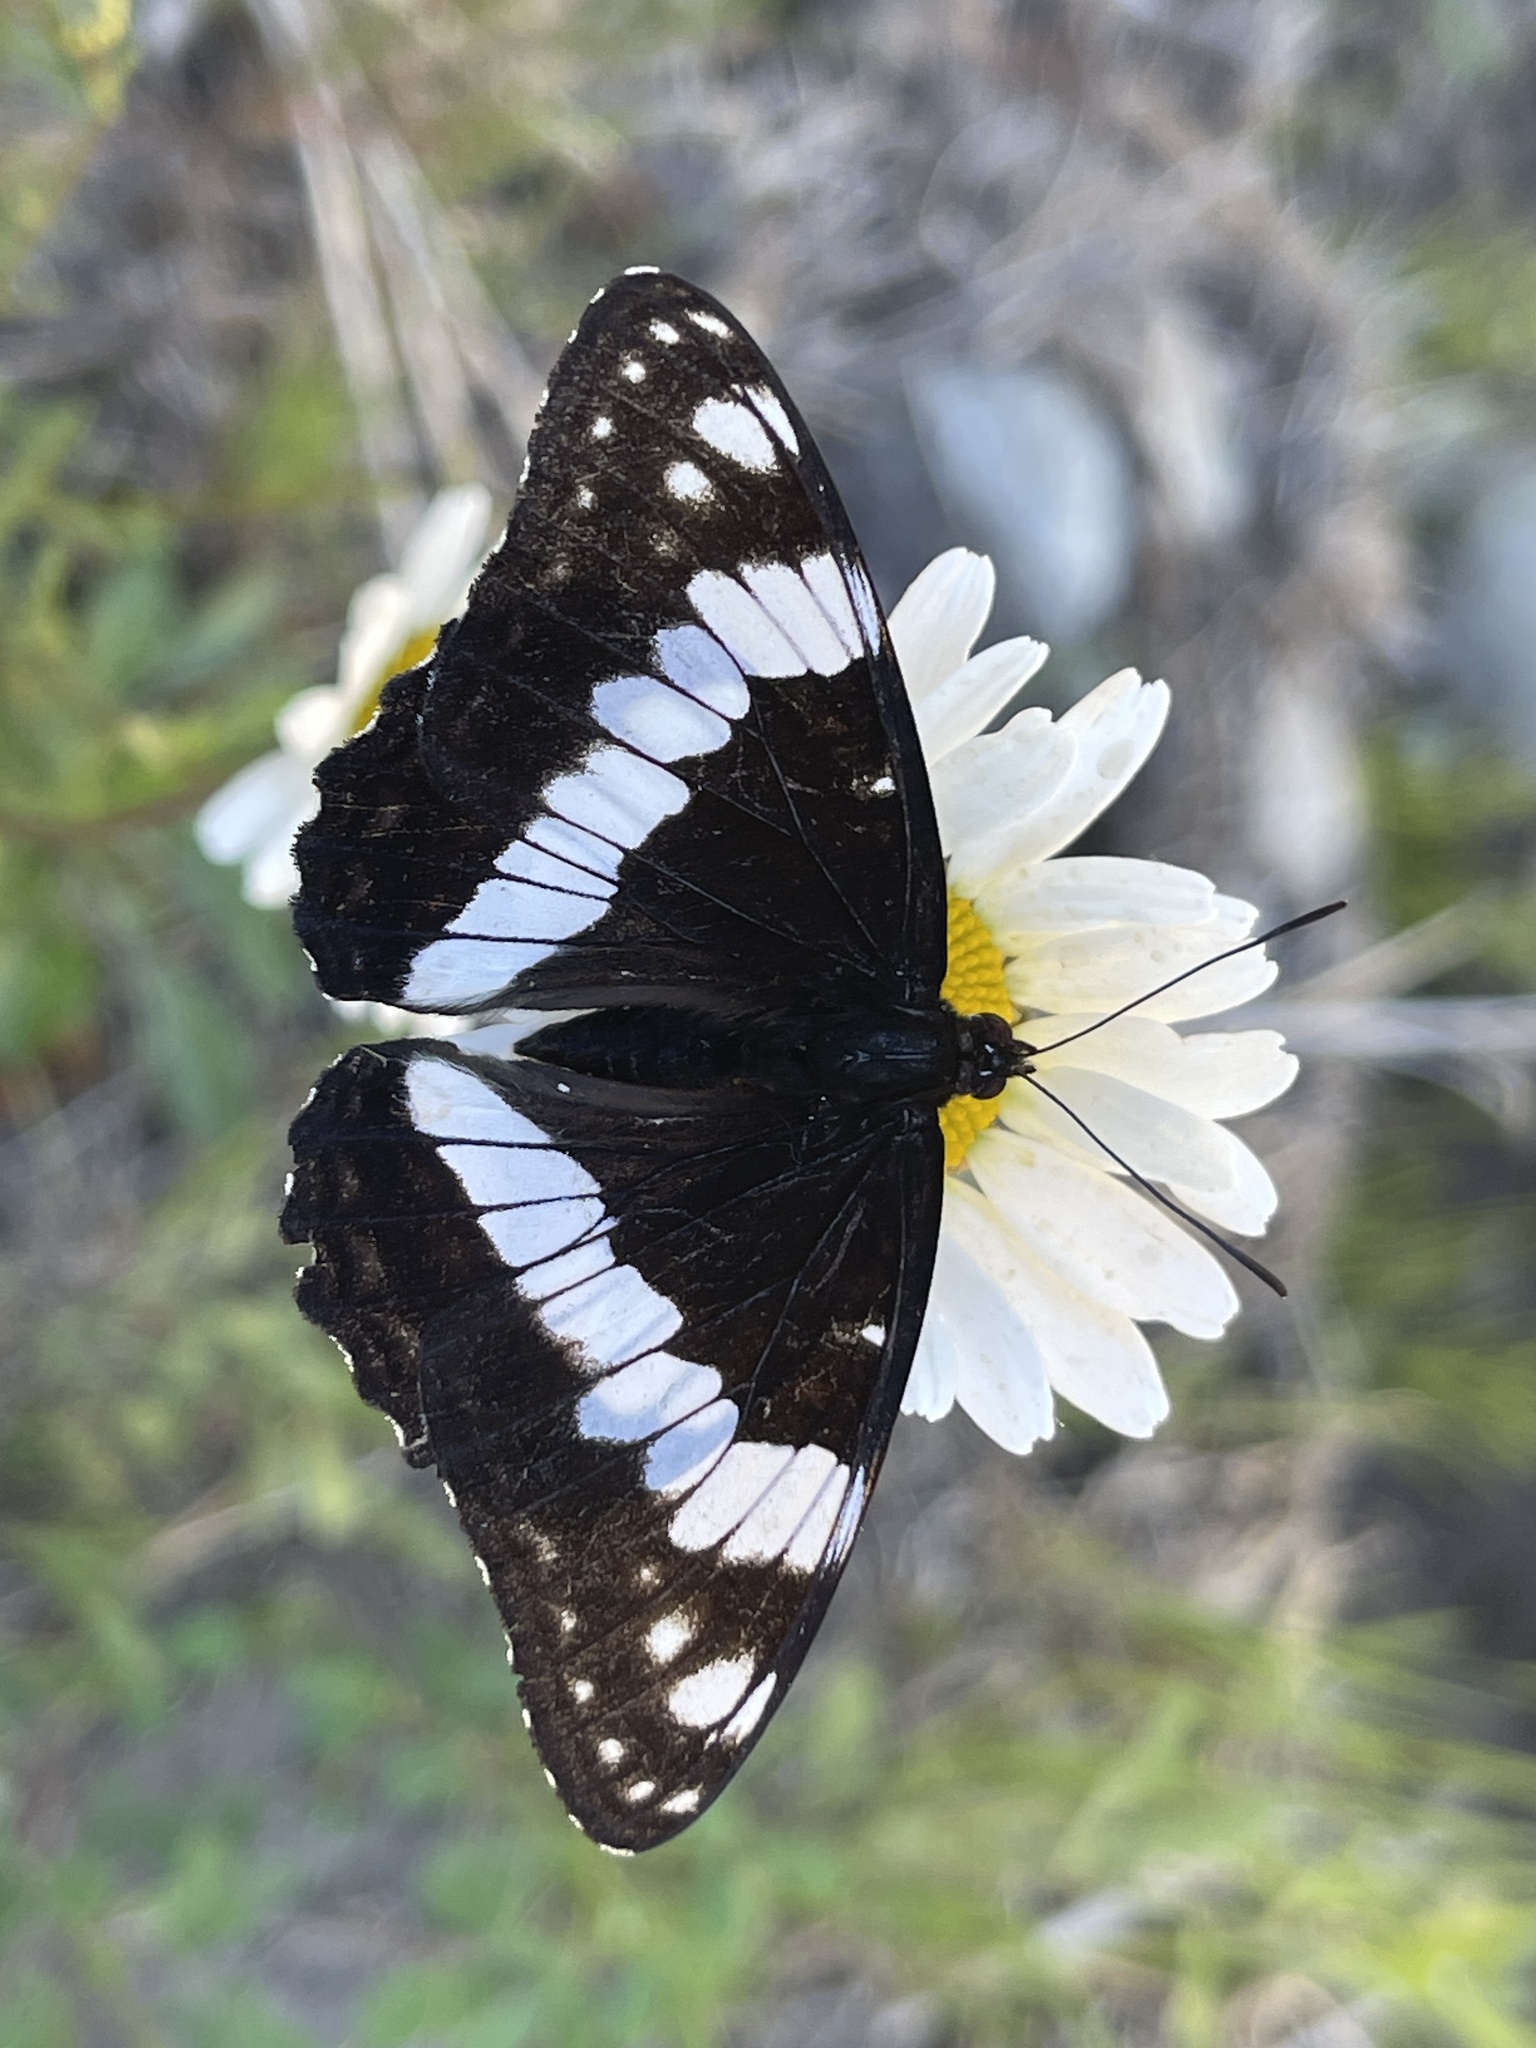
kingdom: Animalia
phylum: Arthropoda
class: Insecta
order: Lepidoptera
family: Nymphalidae
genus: Limenitis
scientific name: Limenitis weidemeyerii
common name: Weidemeyer's admiral
